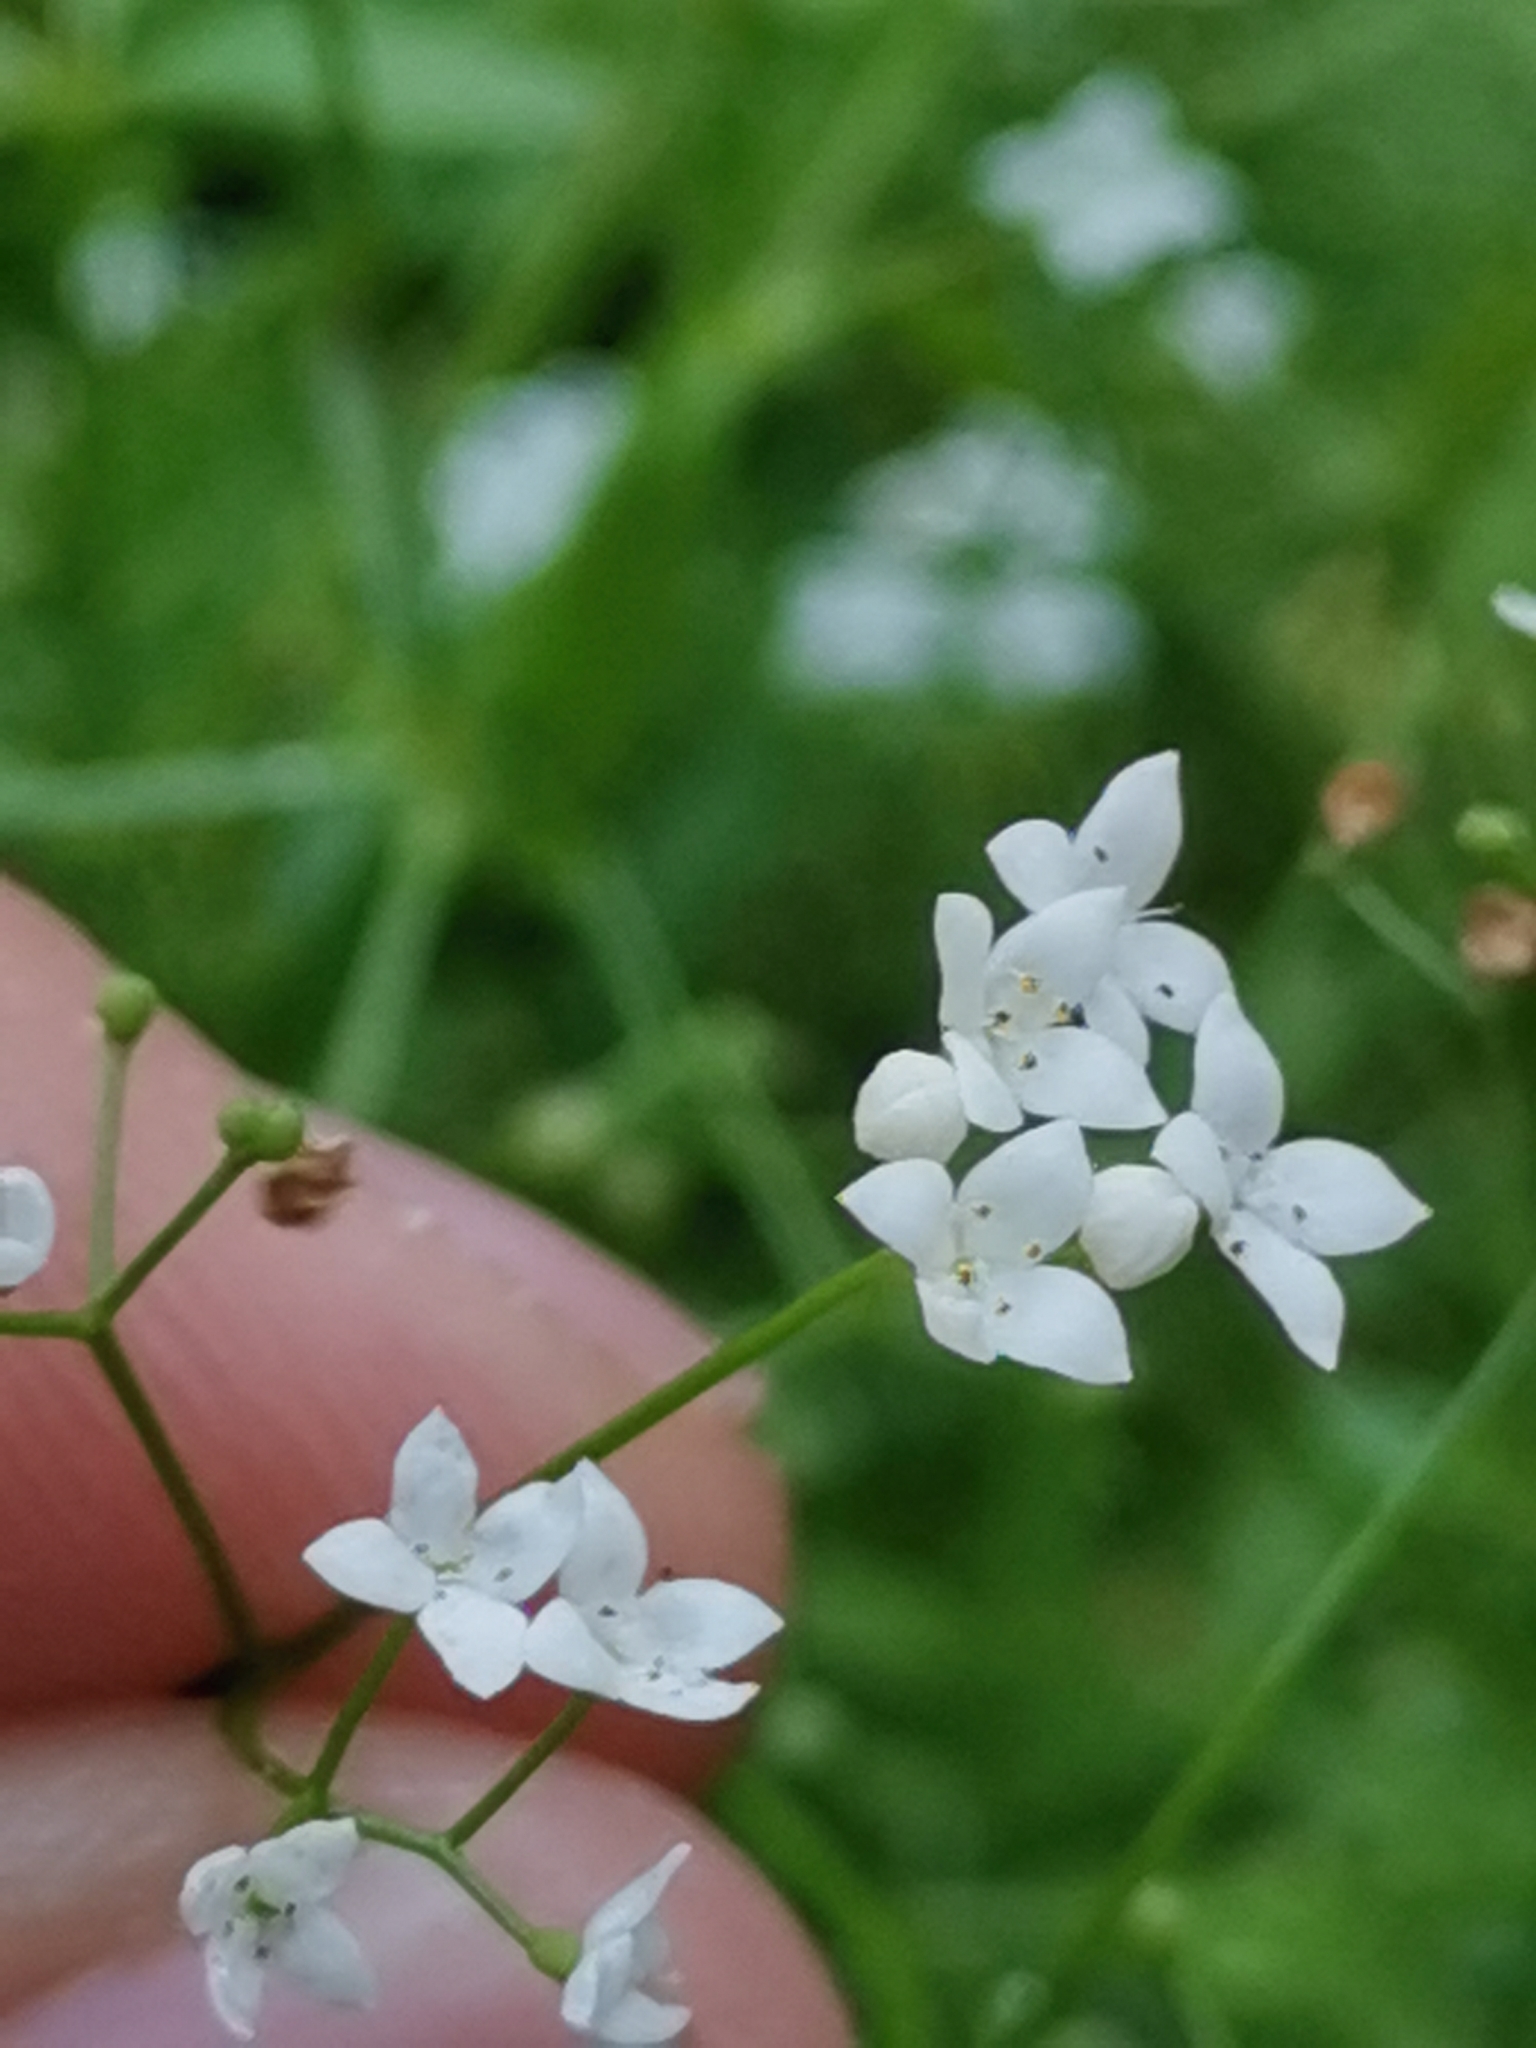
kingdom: Plantae
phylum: Tracheophyta
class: Magnoliopsida
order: Gentianales
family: Rubiaceae
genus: Galium
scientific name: Galium palustre
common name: Common marsh-bedstraw
